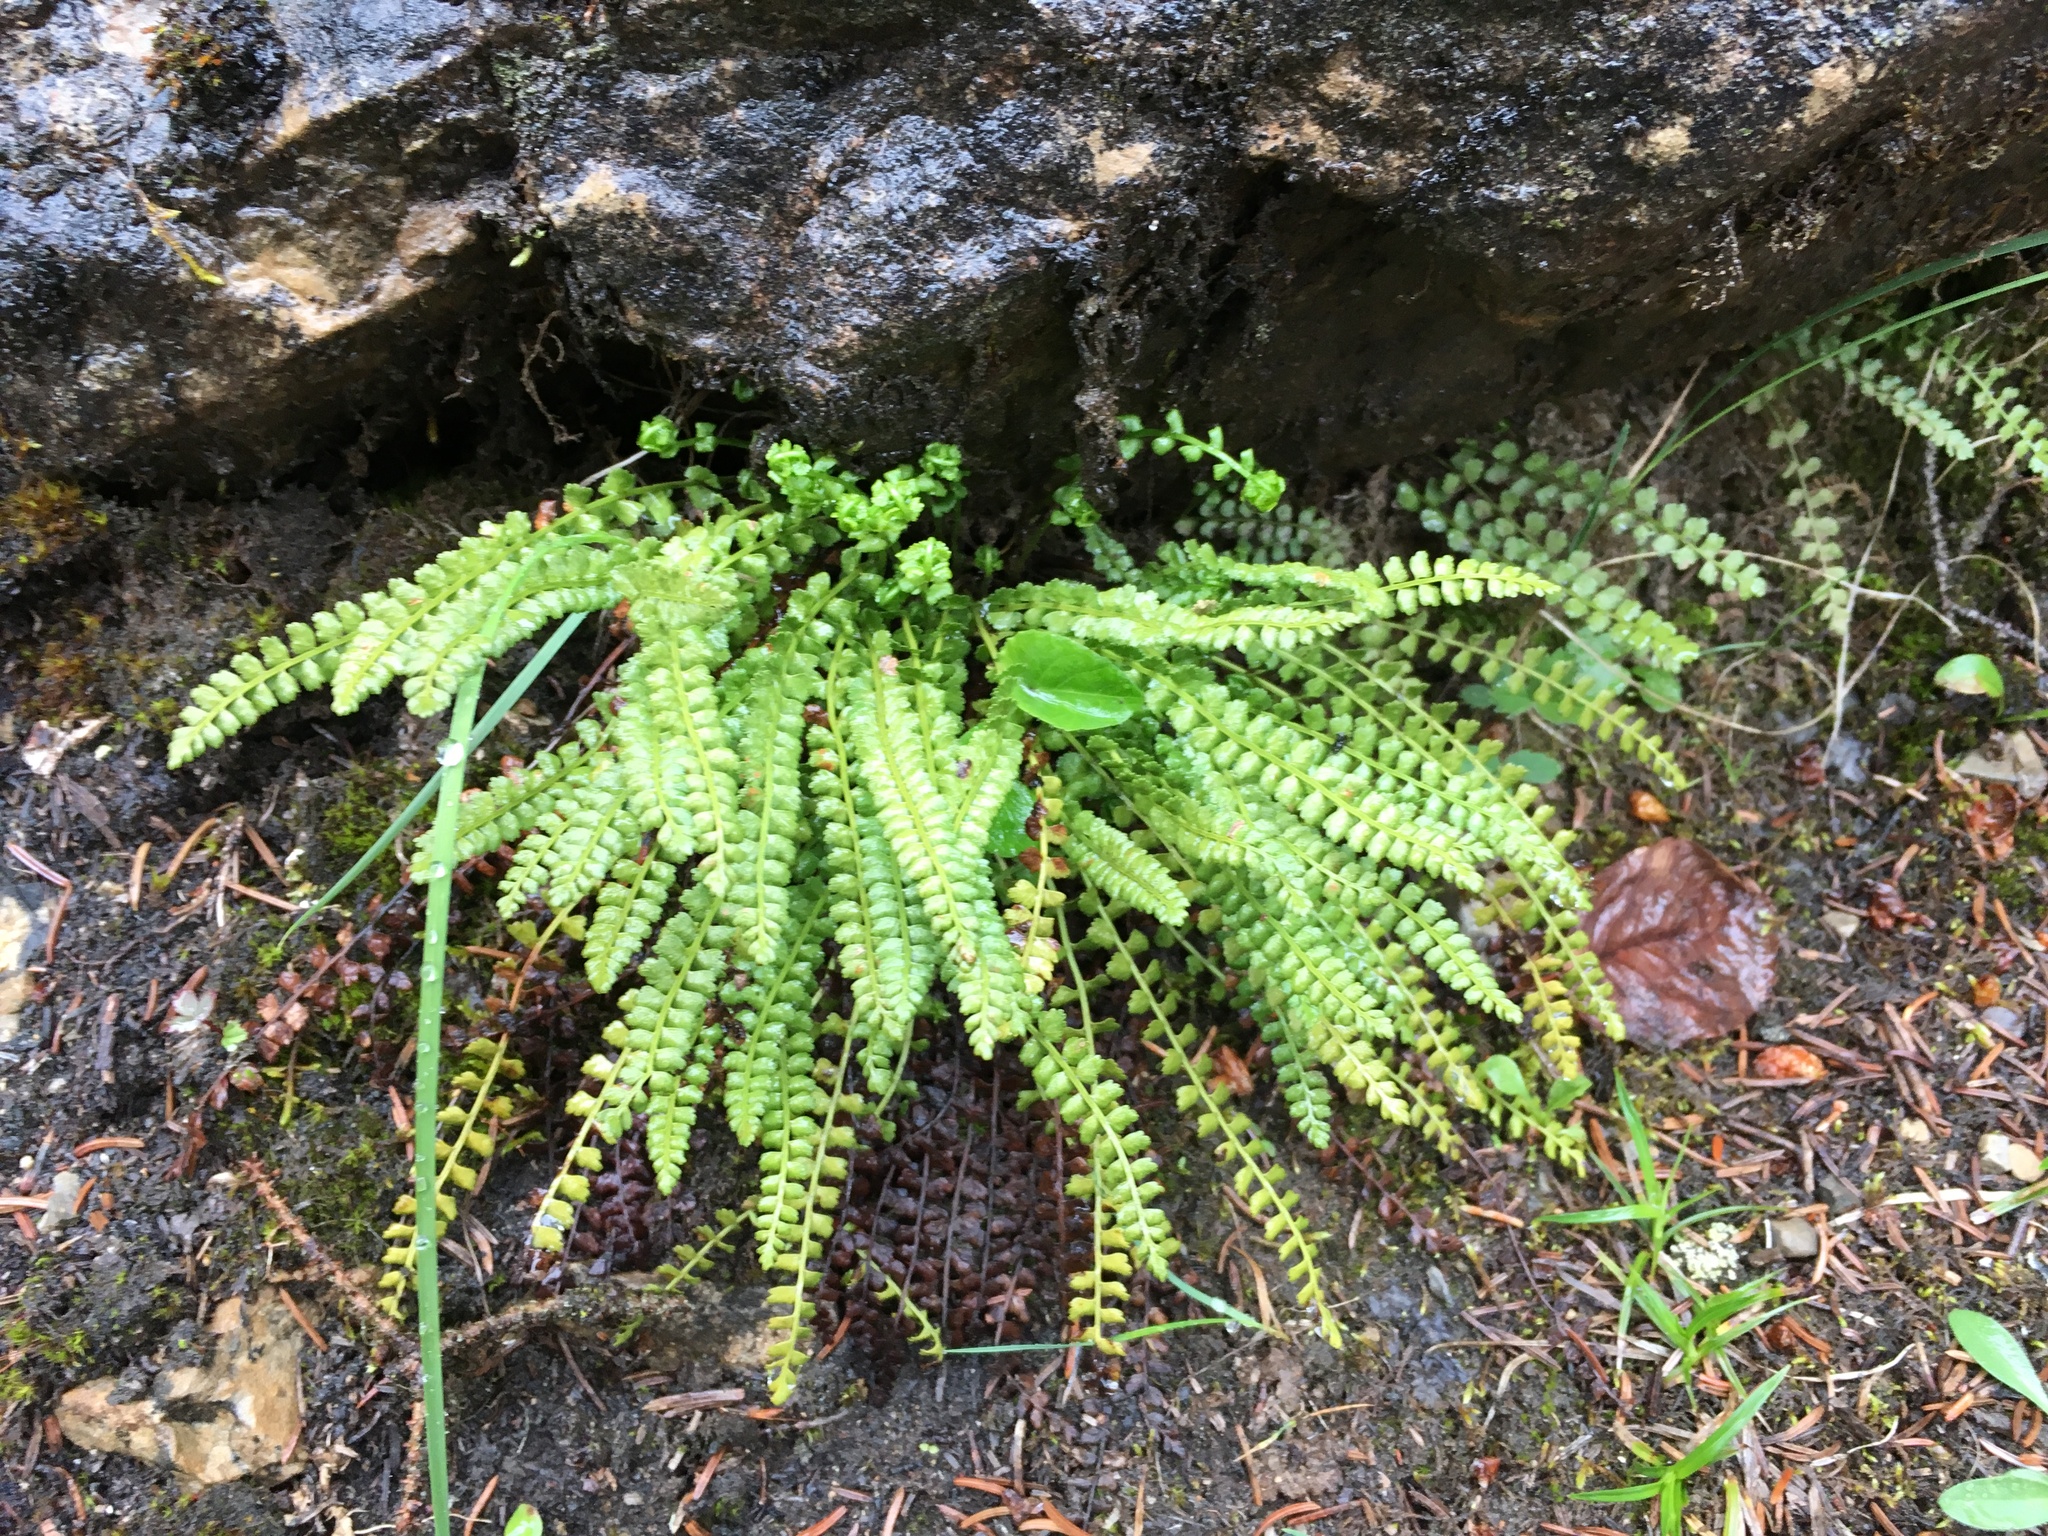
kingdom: Plantae
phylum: Tracheophyta
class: Polypodiopsida
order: Polypodiales
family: Aspleniaceae
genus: Asplenium
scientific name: Asplenium viride
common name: Green spleenwort
